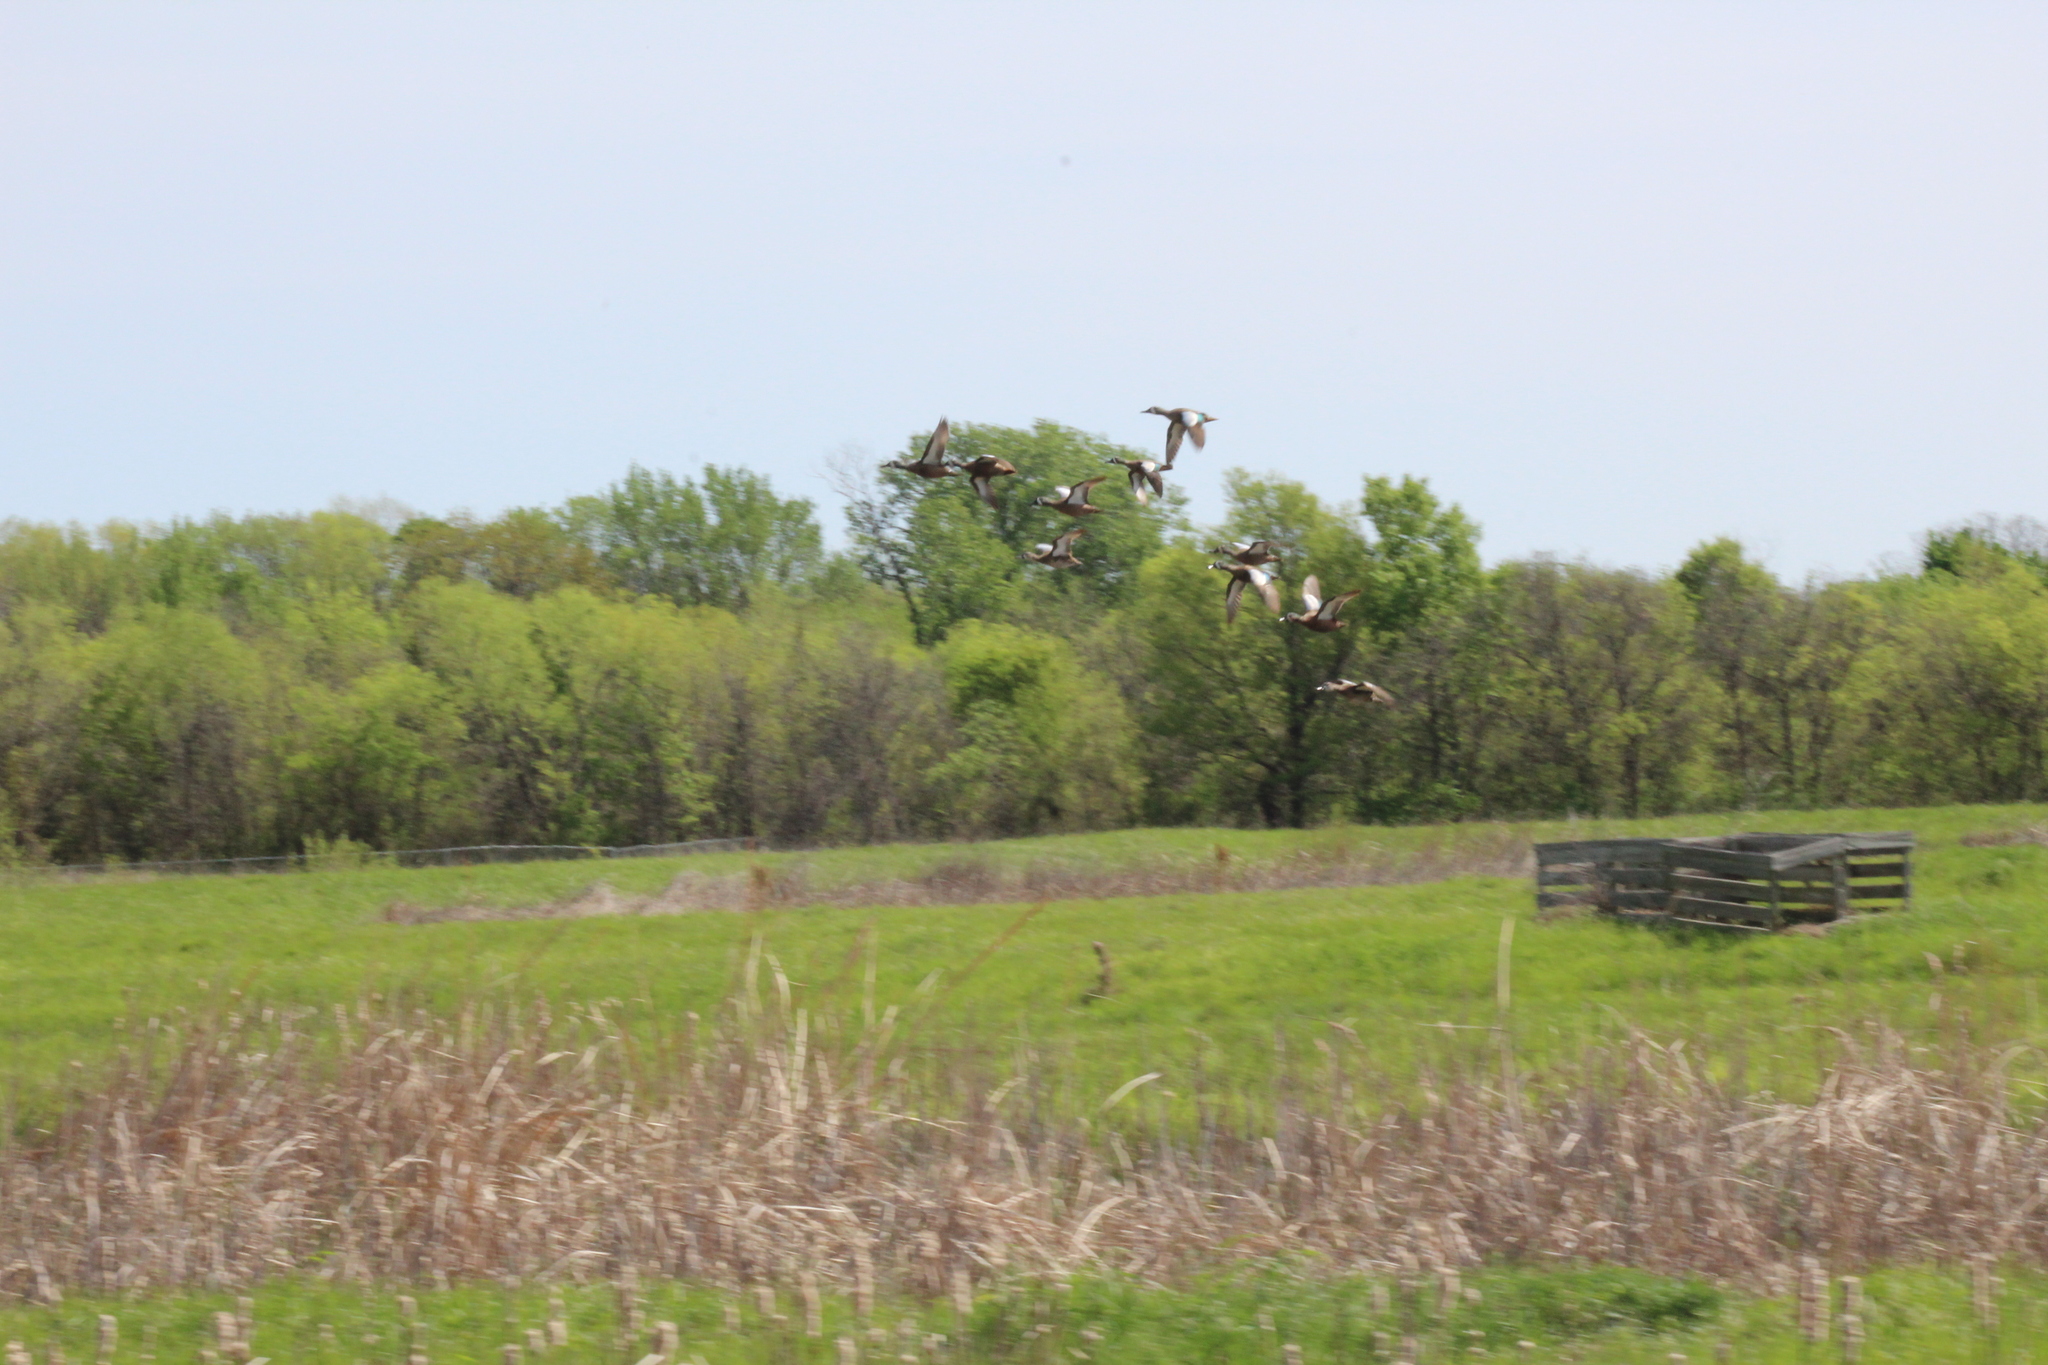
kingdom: Animalia
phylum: Chordata
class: Aves
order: Anseriformes
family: Anatidae
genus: Spatula
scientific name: Spatula discors
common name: Blue-winged teal
